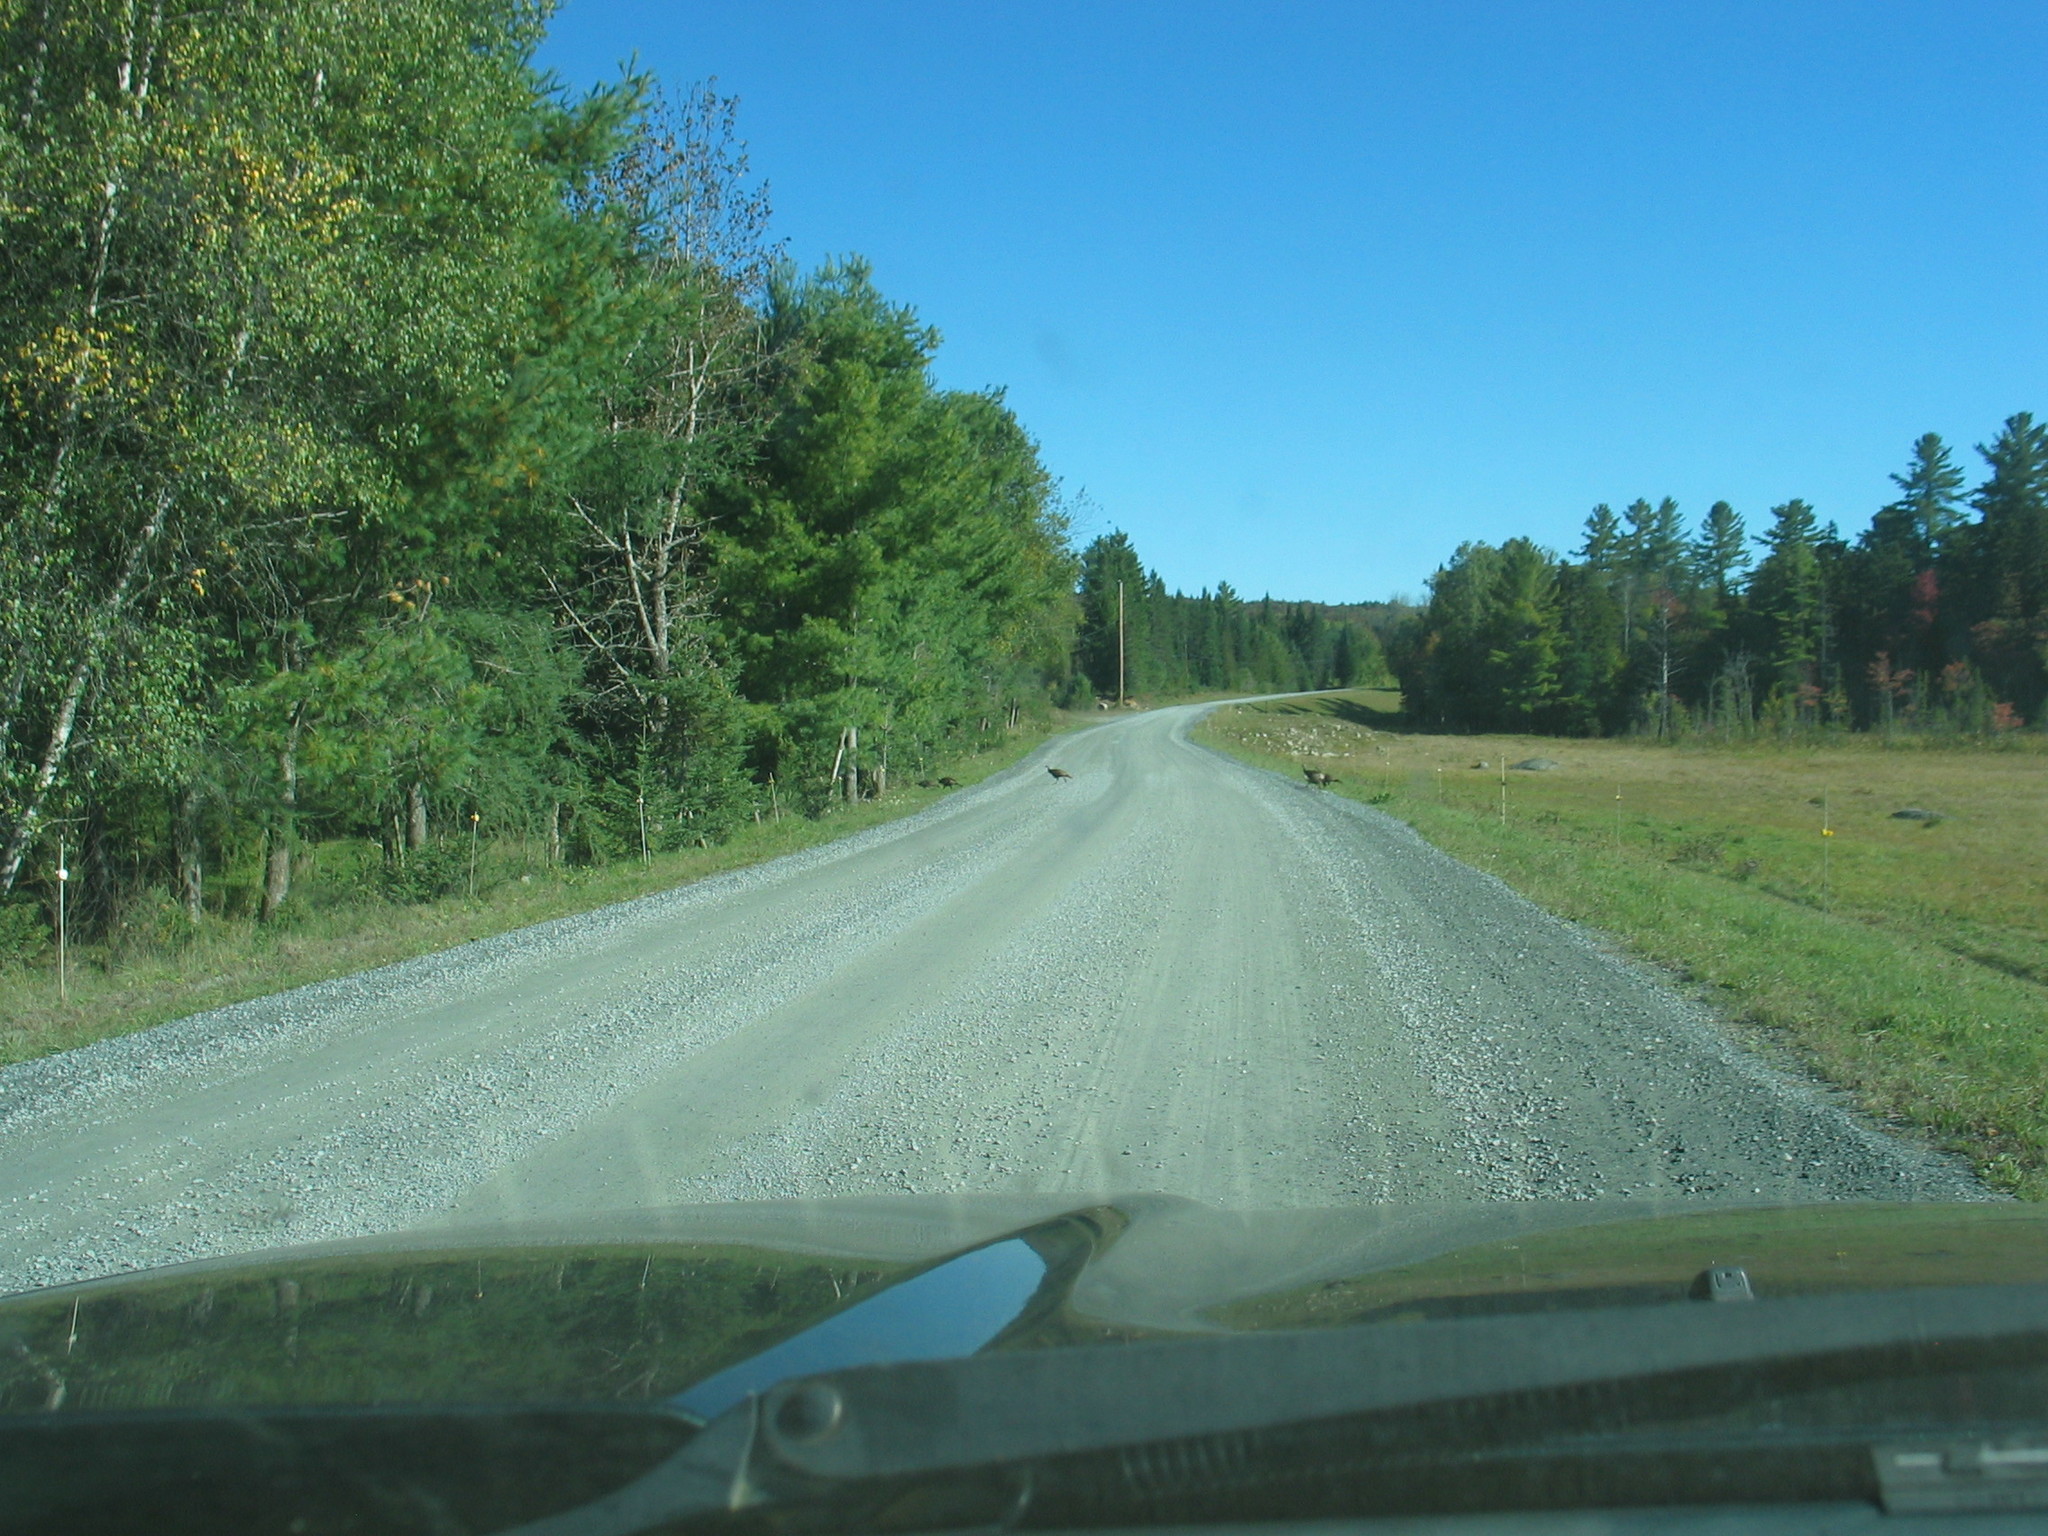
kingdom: Animalia
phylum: Chordata
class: Aves
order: Galliformes
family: Phasianidae
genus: Meleagris
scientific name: Meleagris gallopavo
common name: Wild turkey
